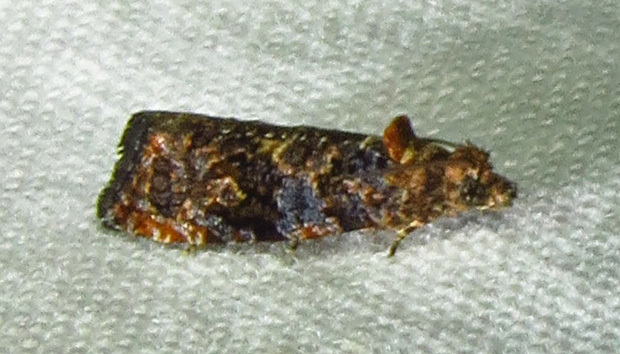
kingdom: Animalia
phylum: Arthropoda
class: Insecta
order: Lepidoptera
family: Tortricidae
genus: Endothenia
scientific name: Endothenia hebesana
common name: Verbena bud moth
